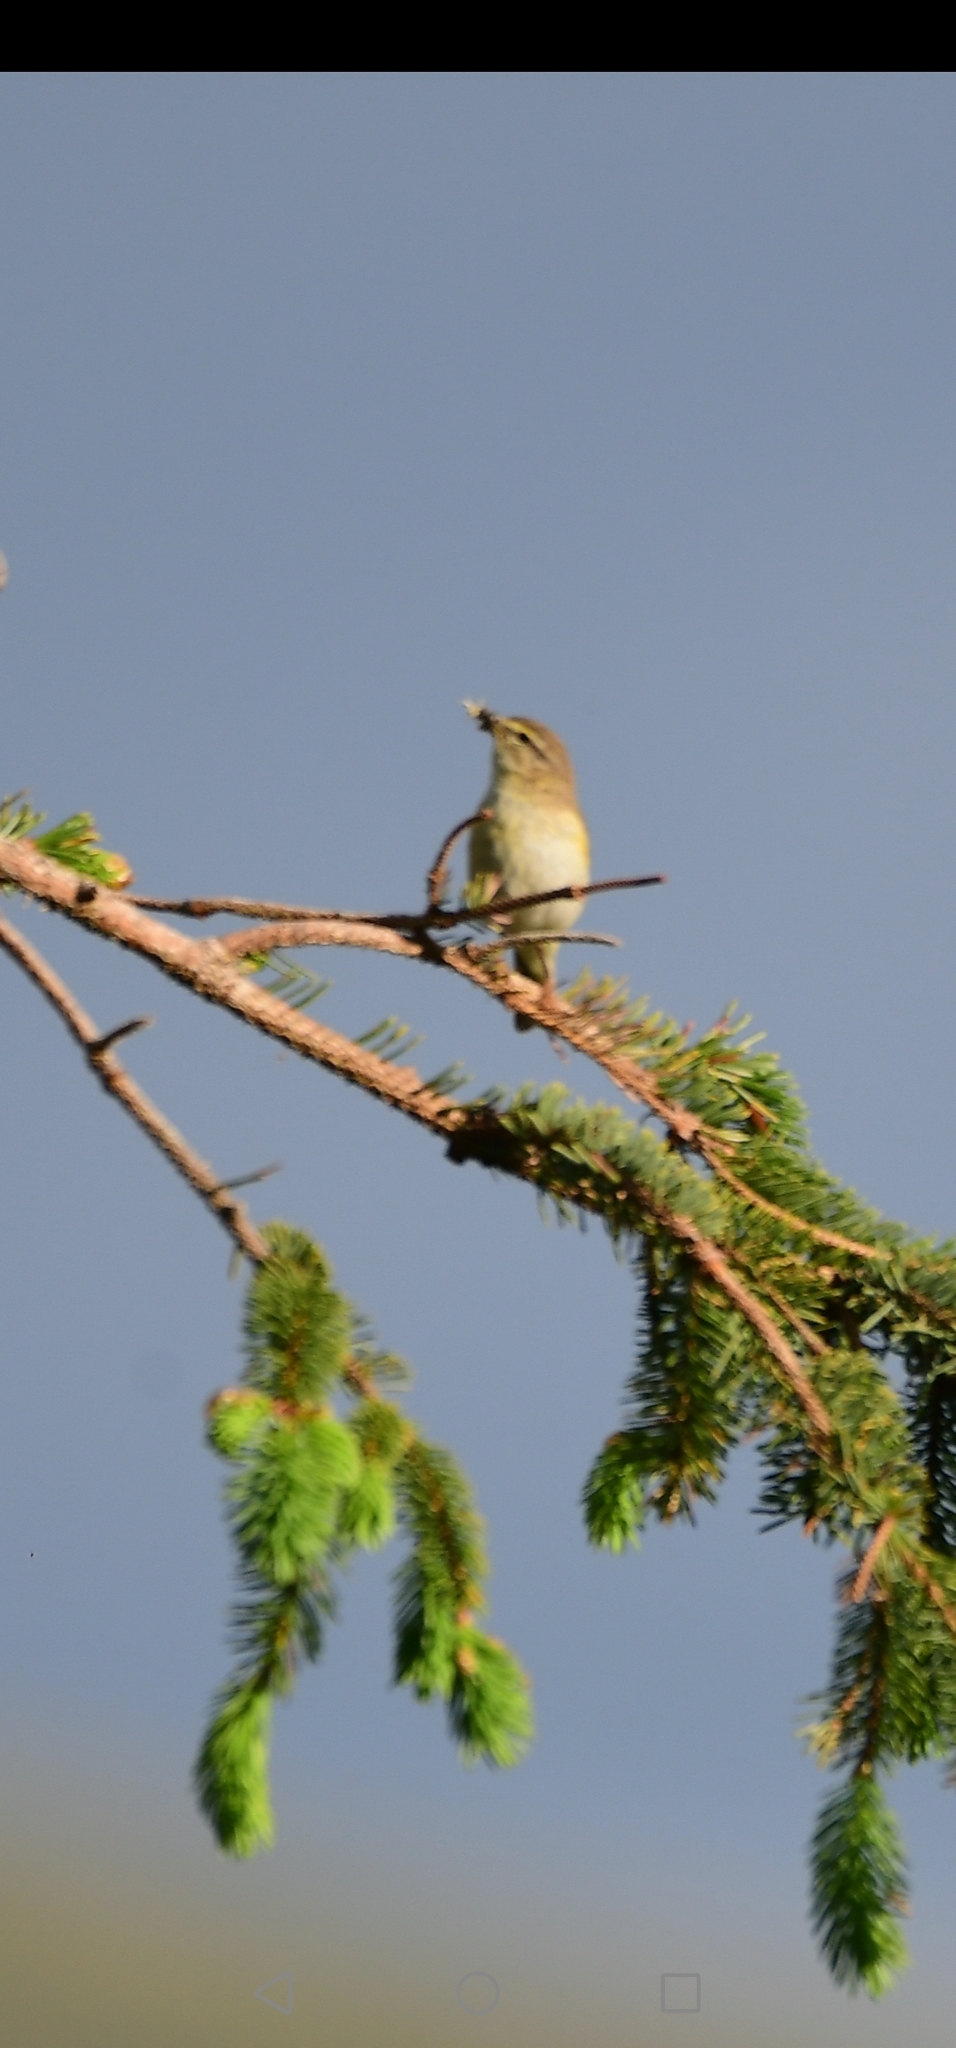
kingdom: Animalia
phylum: Chordata
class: Aves
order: Passeriformes
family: Phylloscopidae
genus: Phylloscopus
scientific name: Phylloscopus trochilus
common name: Willow warbler
